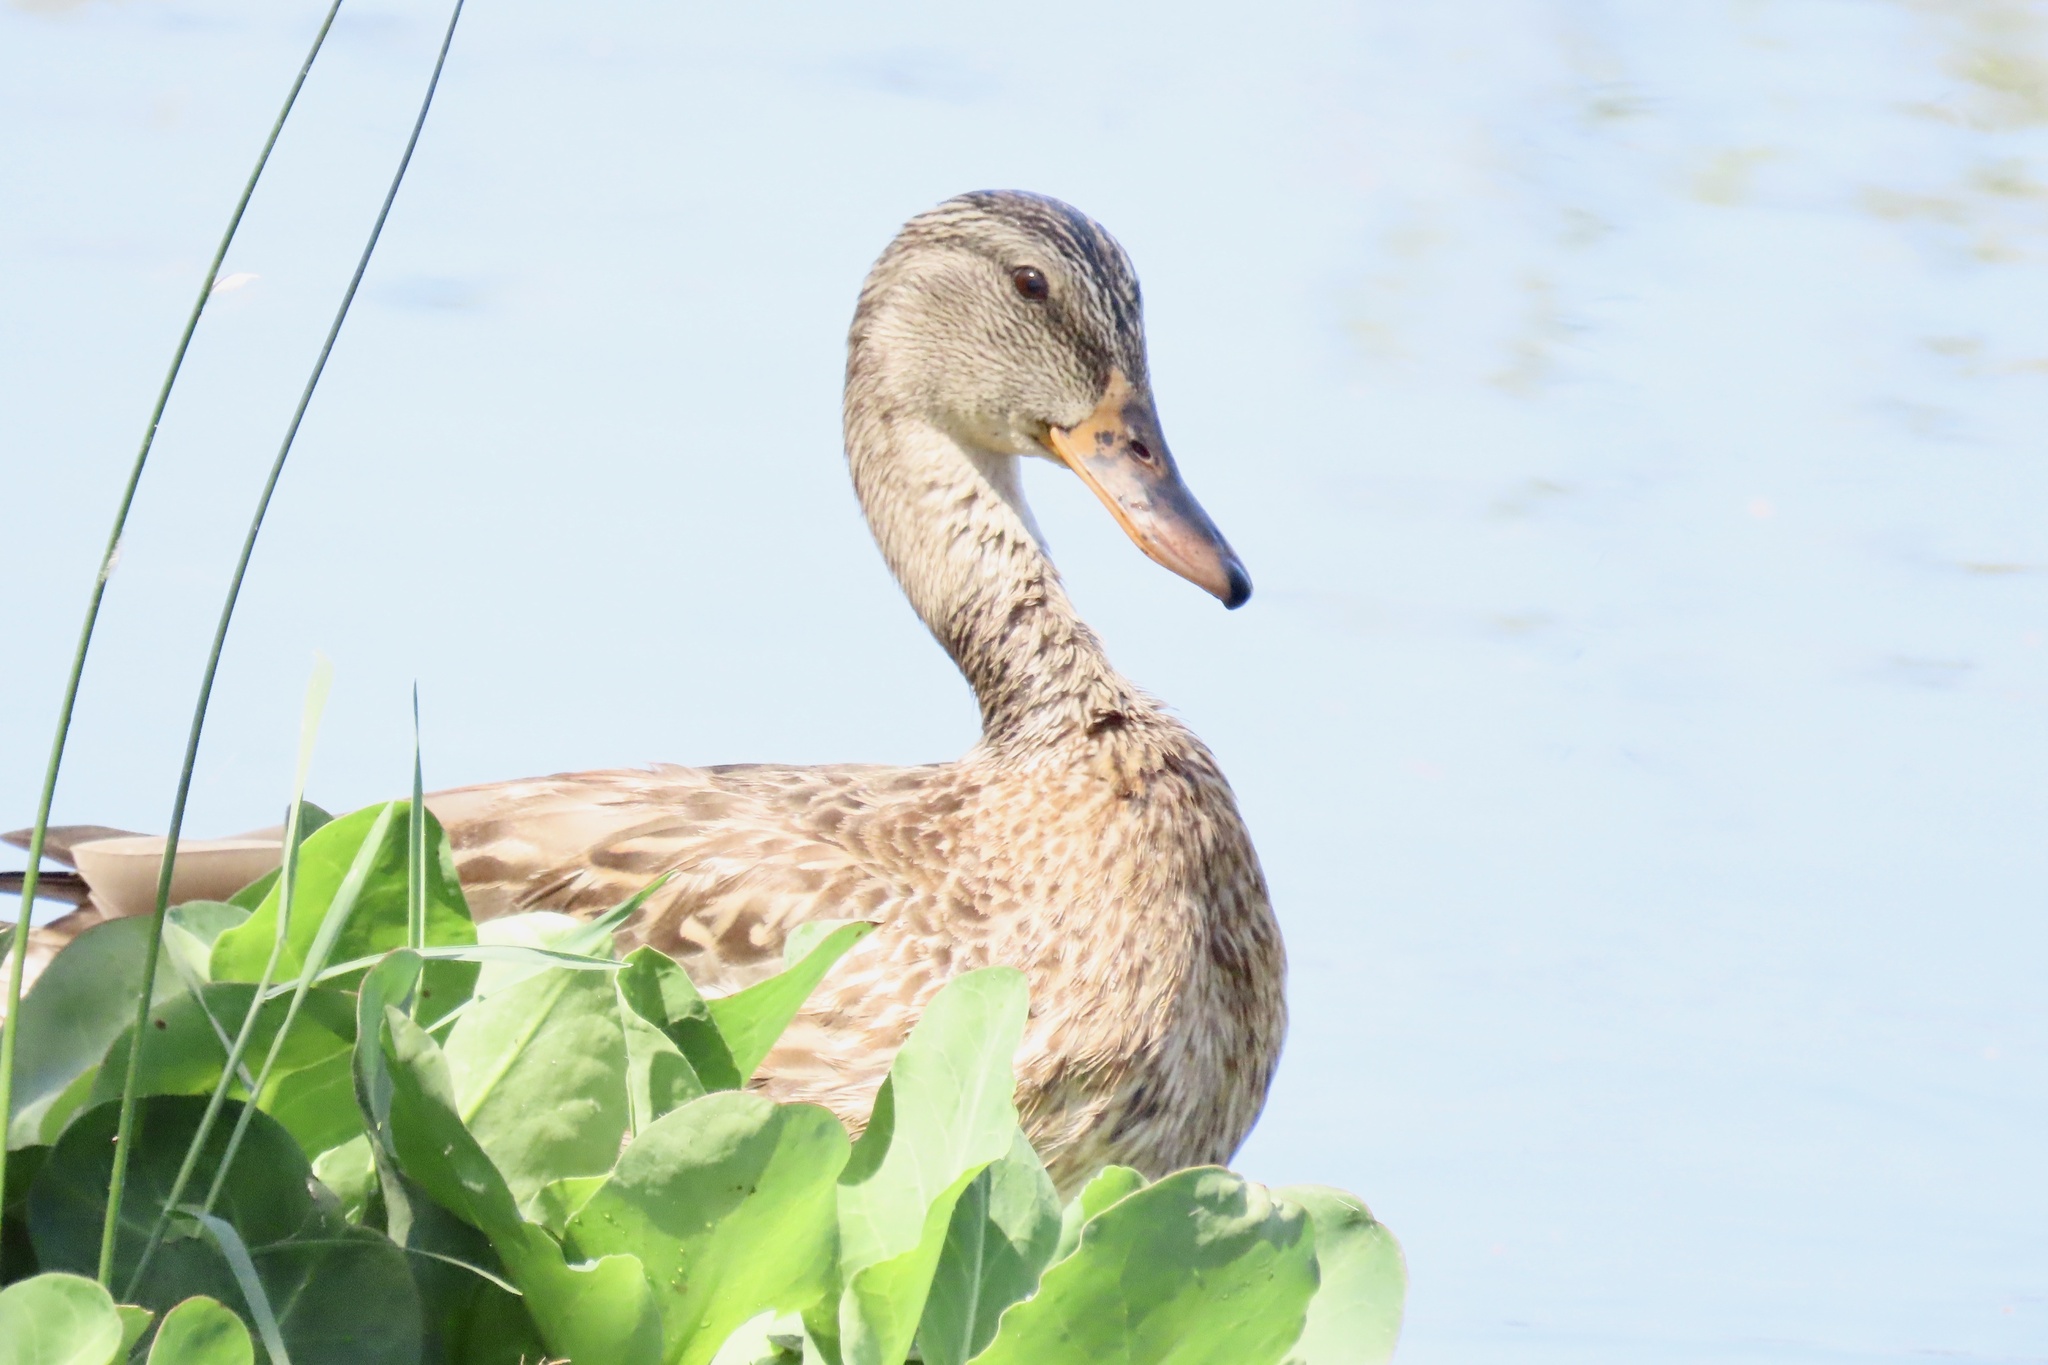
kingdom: Animalia
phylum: Chordata
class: Aves
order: Anseriformes
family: Anatidae
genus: Anas
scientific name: Anas platyrhynchos
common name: Mallard
